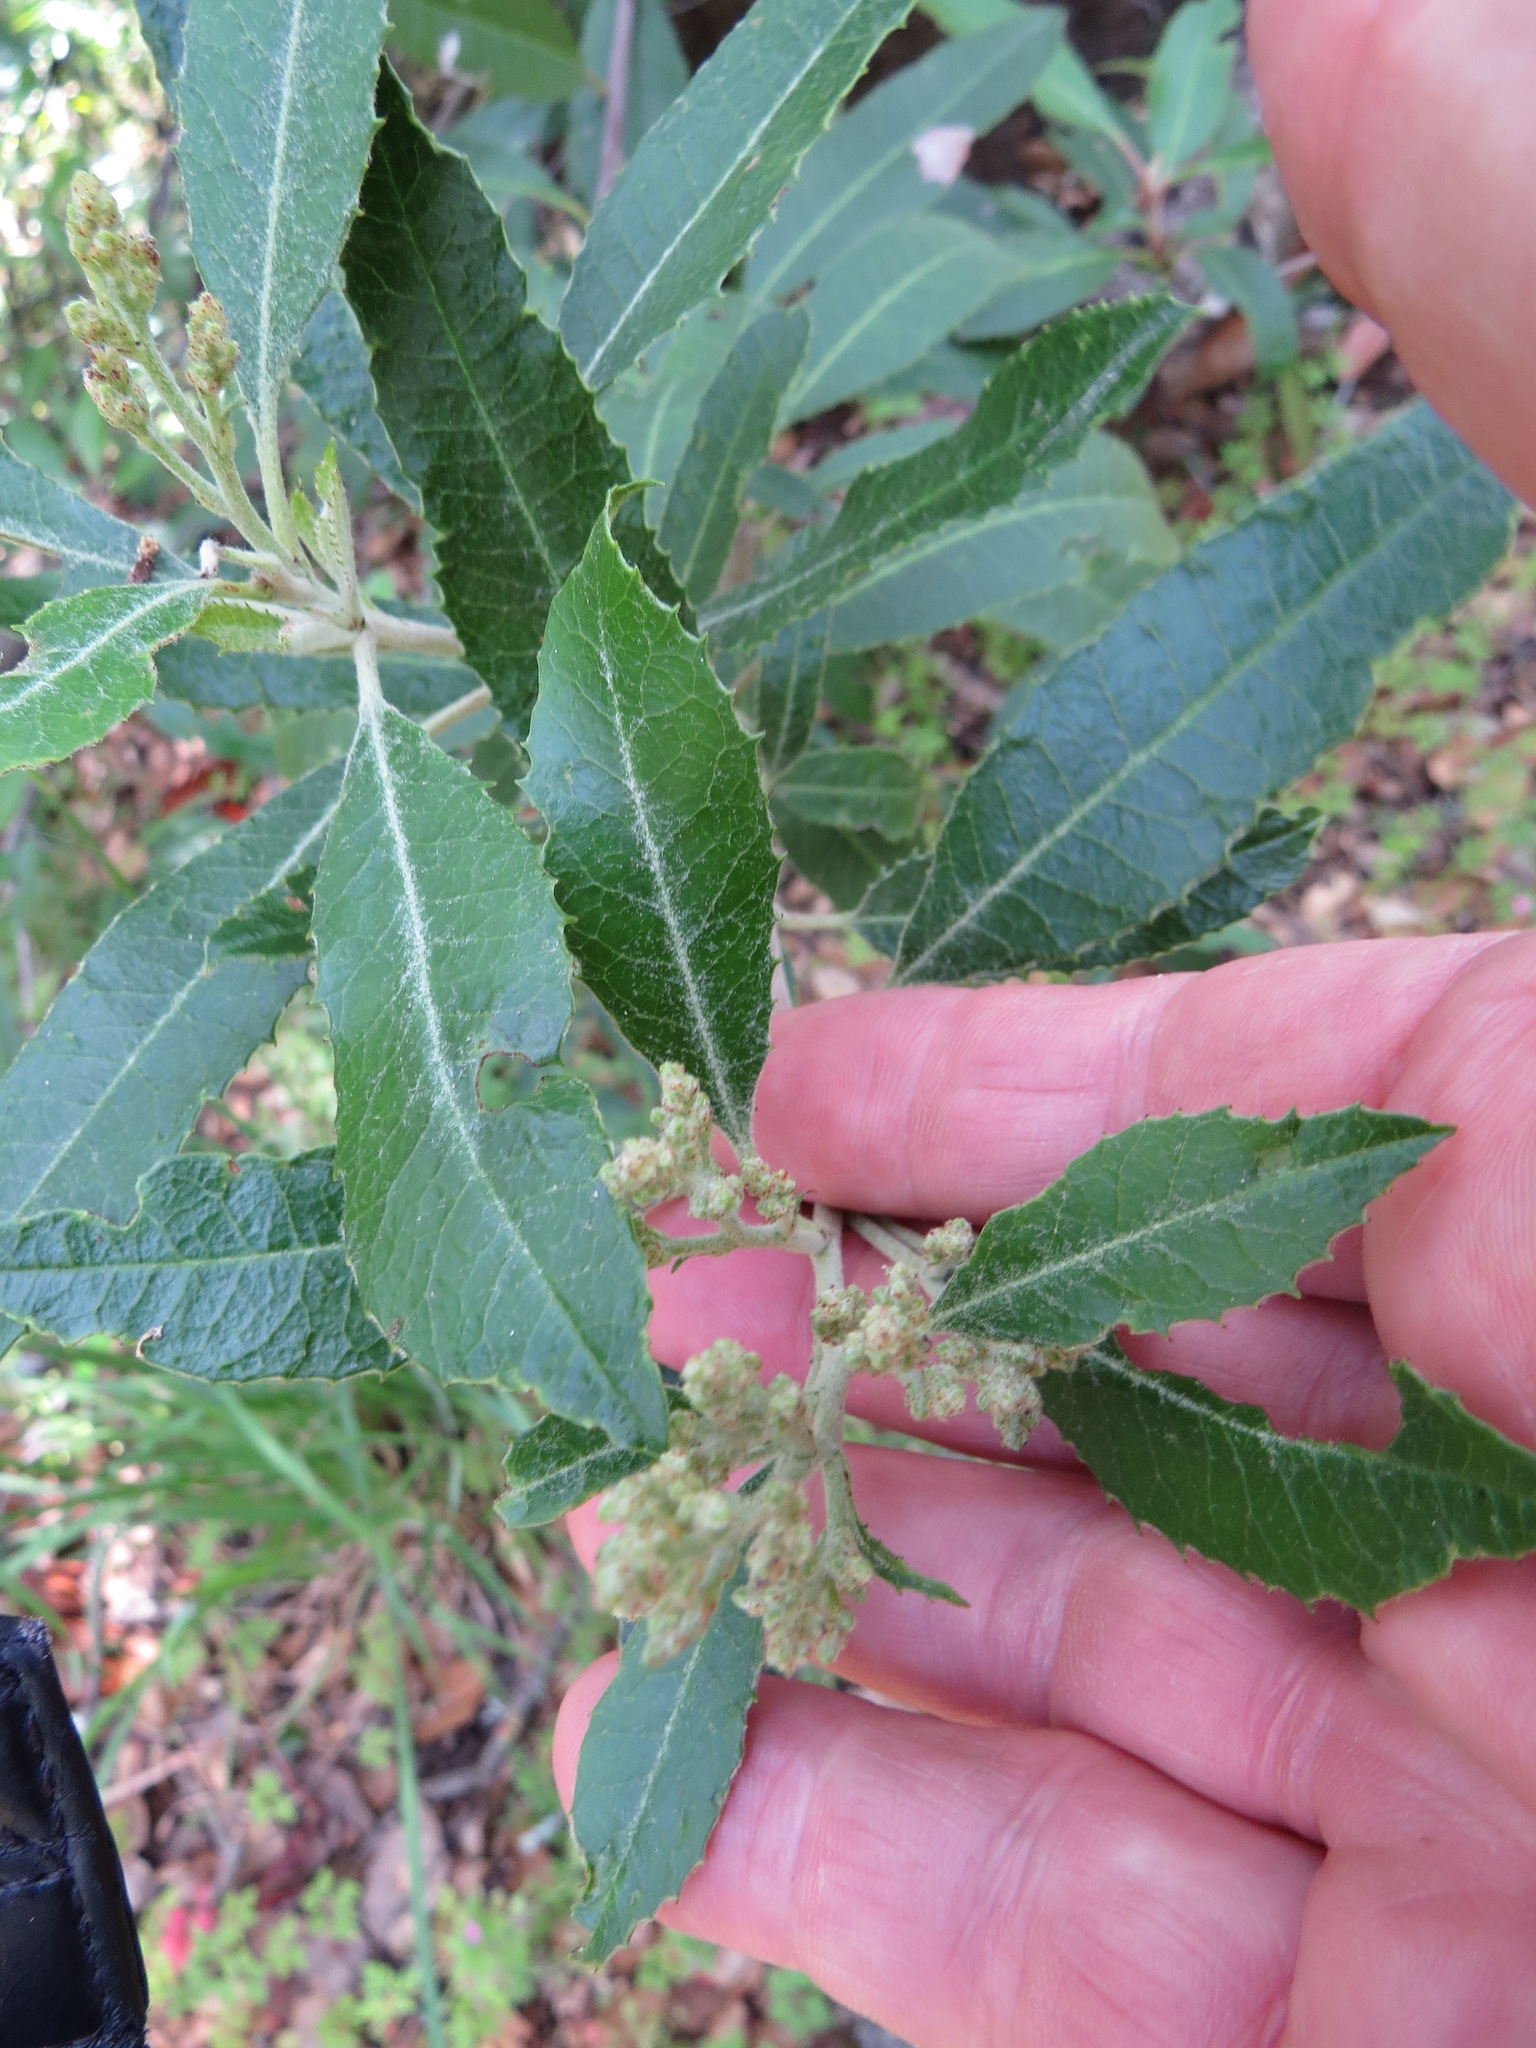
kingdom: Plantae
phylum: Tracheophyta
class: Magnoliopsida
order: Rosales
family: Rosaceae
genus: Heteromeles
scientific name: Heteromeles arbutifolia
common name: California-holly
